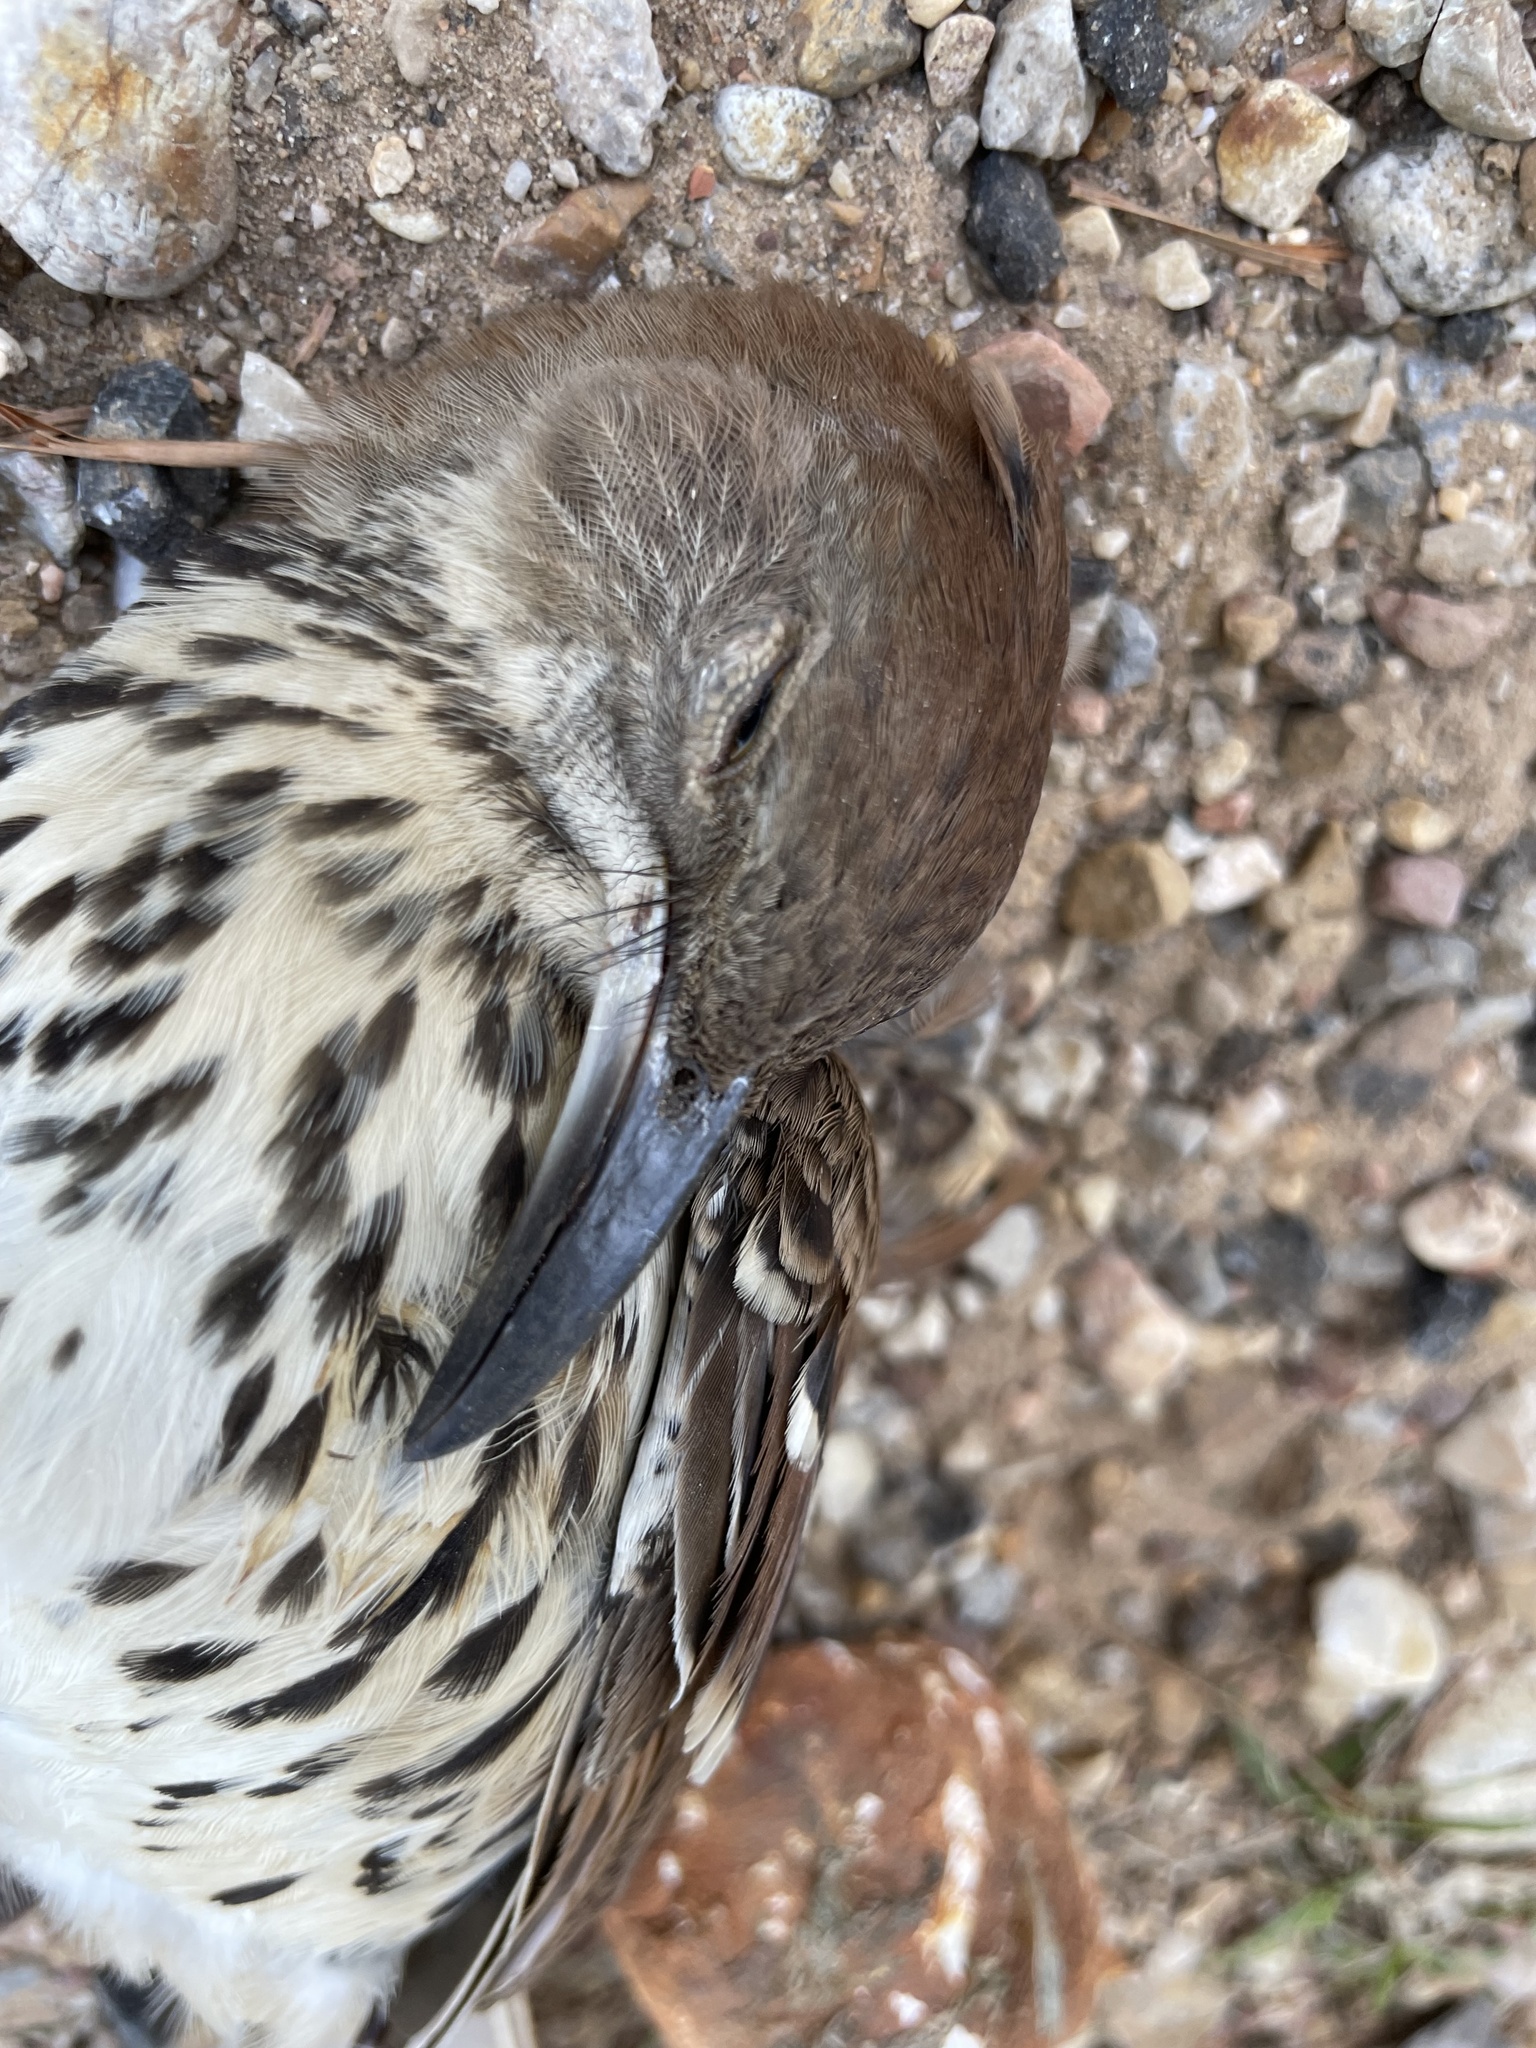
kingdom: Animalia
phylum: Chordata
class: Aves
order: Passeriformes
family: Mimidae
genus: Toxostoma
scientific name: Toxostoma rufum
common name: Brown thrasher
